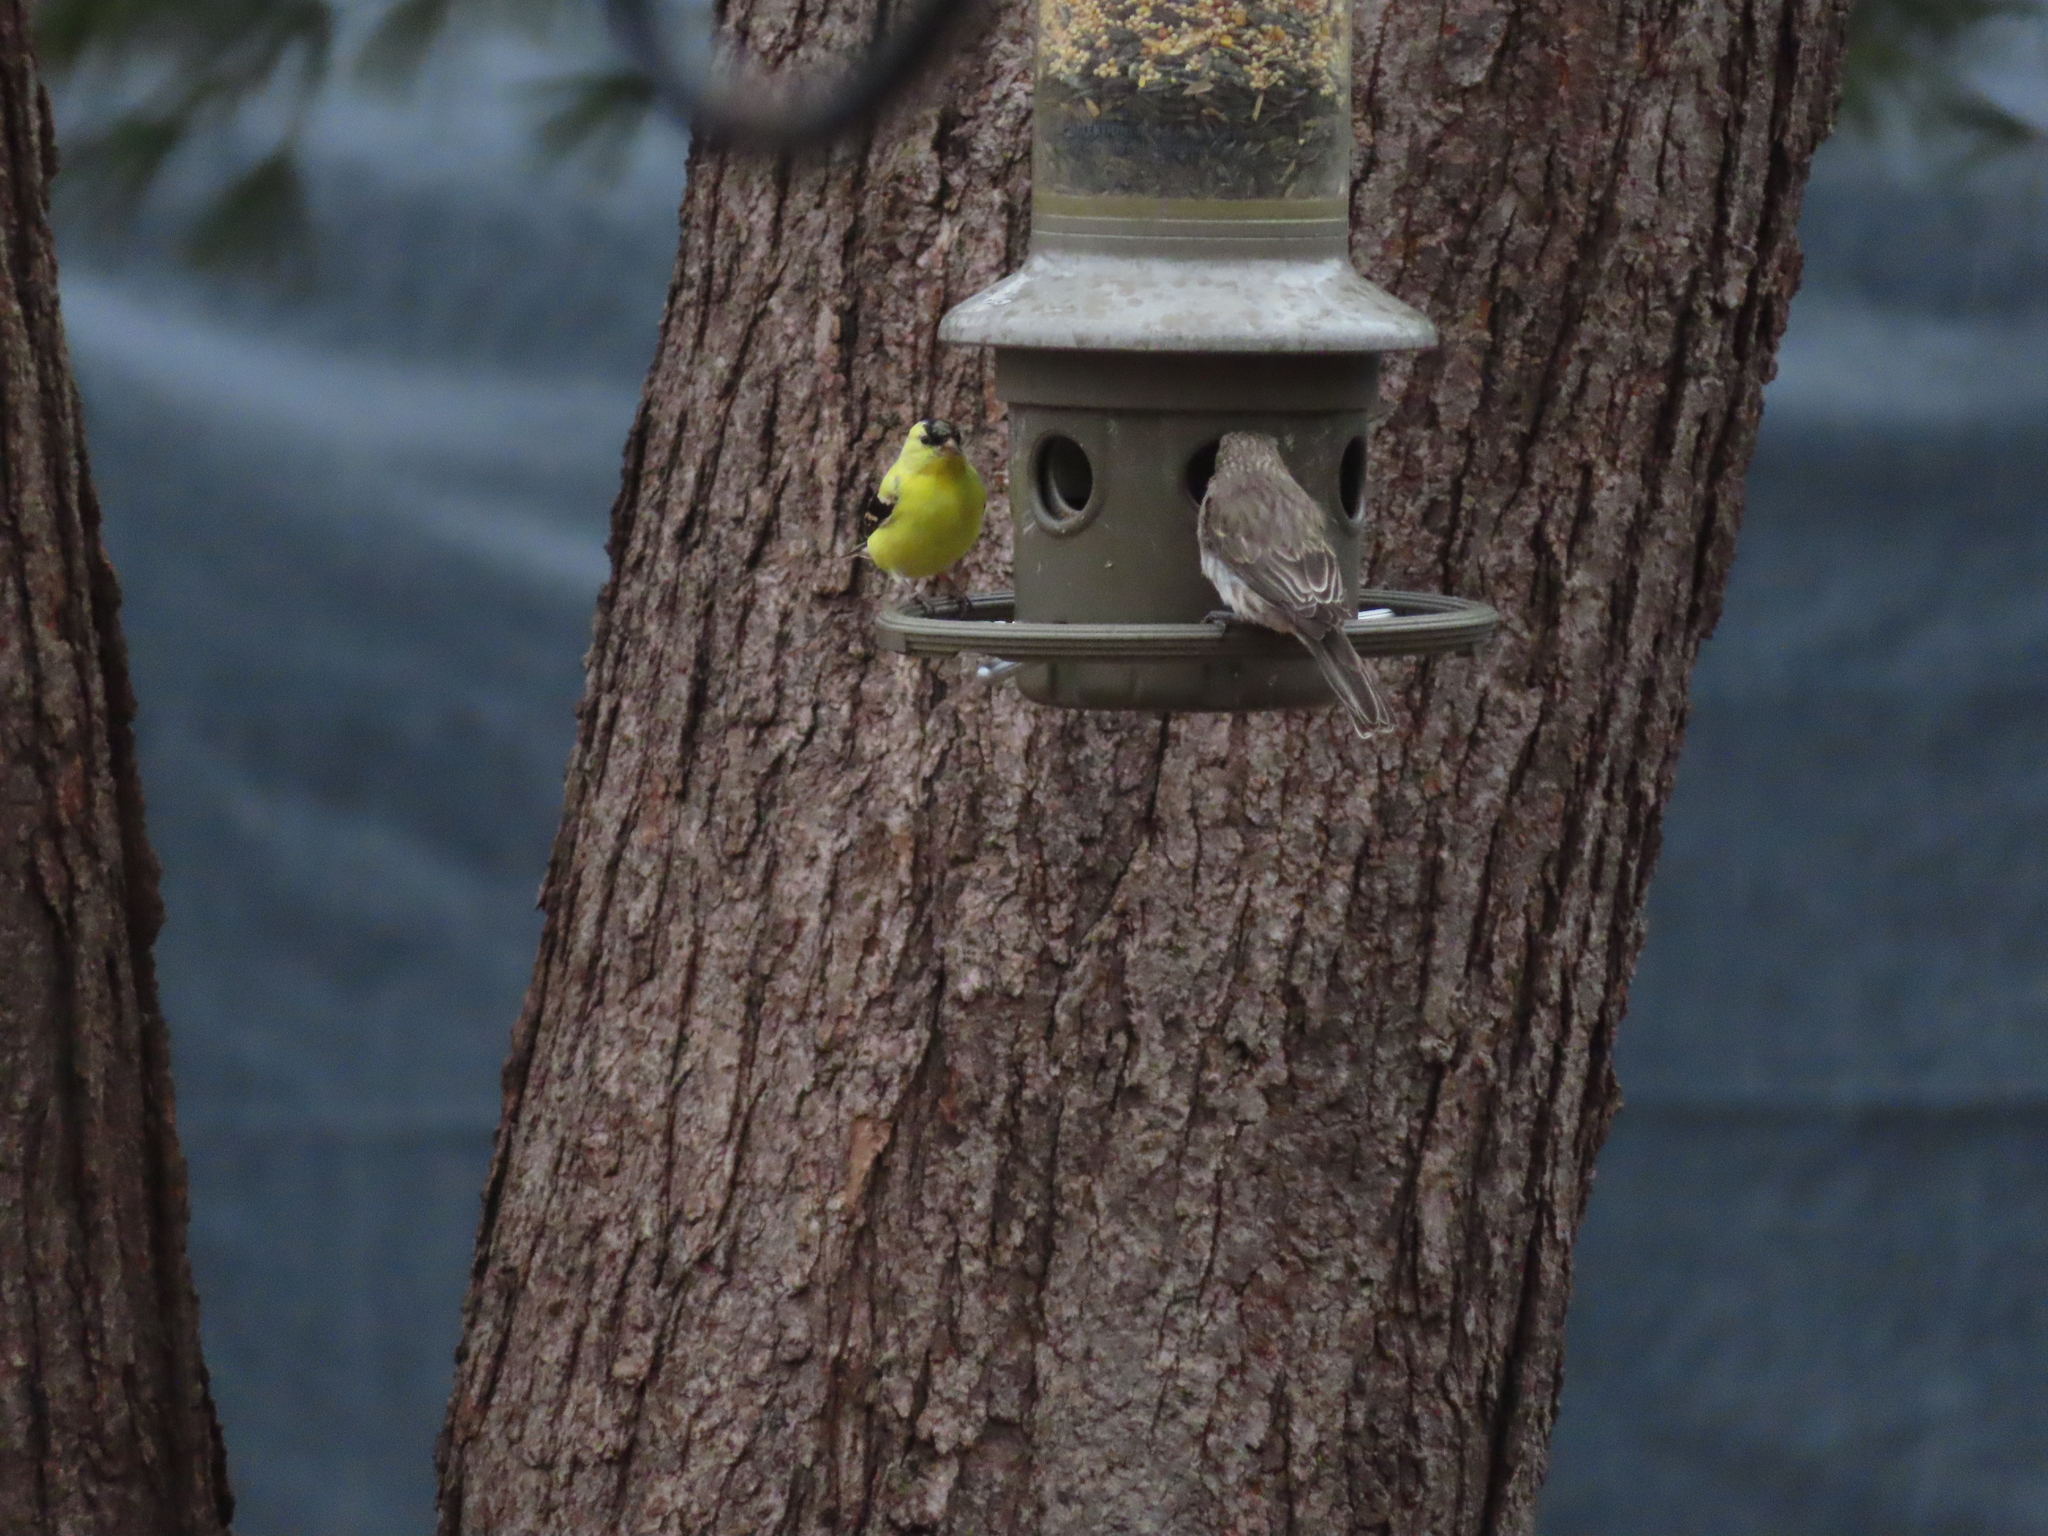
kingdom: Animalia
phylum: Chordata
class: Aves
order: Passeriformes
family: Fringillidae
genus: Spinus
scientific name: Spinus tristis
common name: American goldfinch
